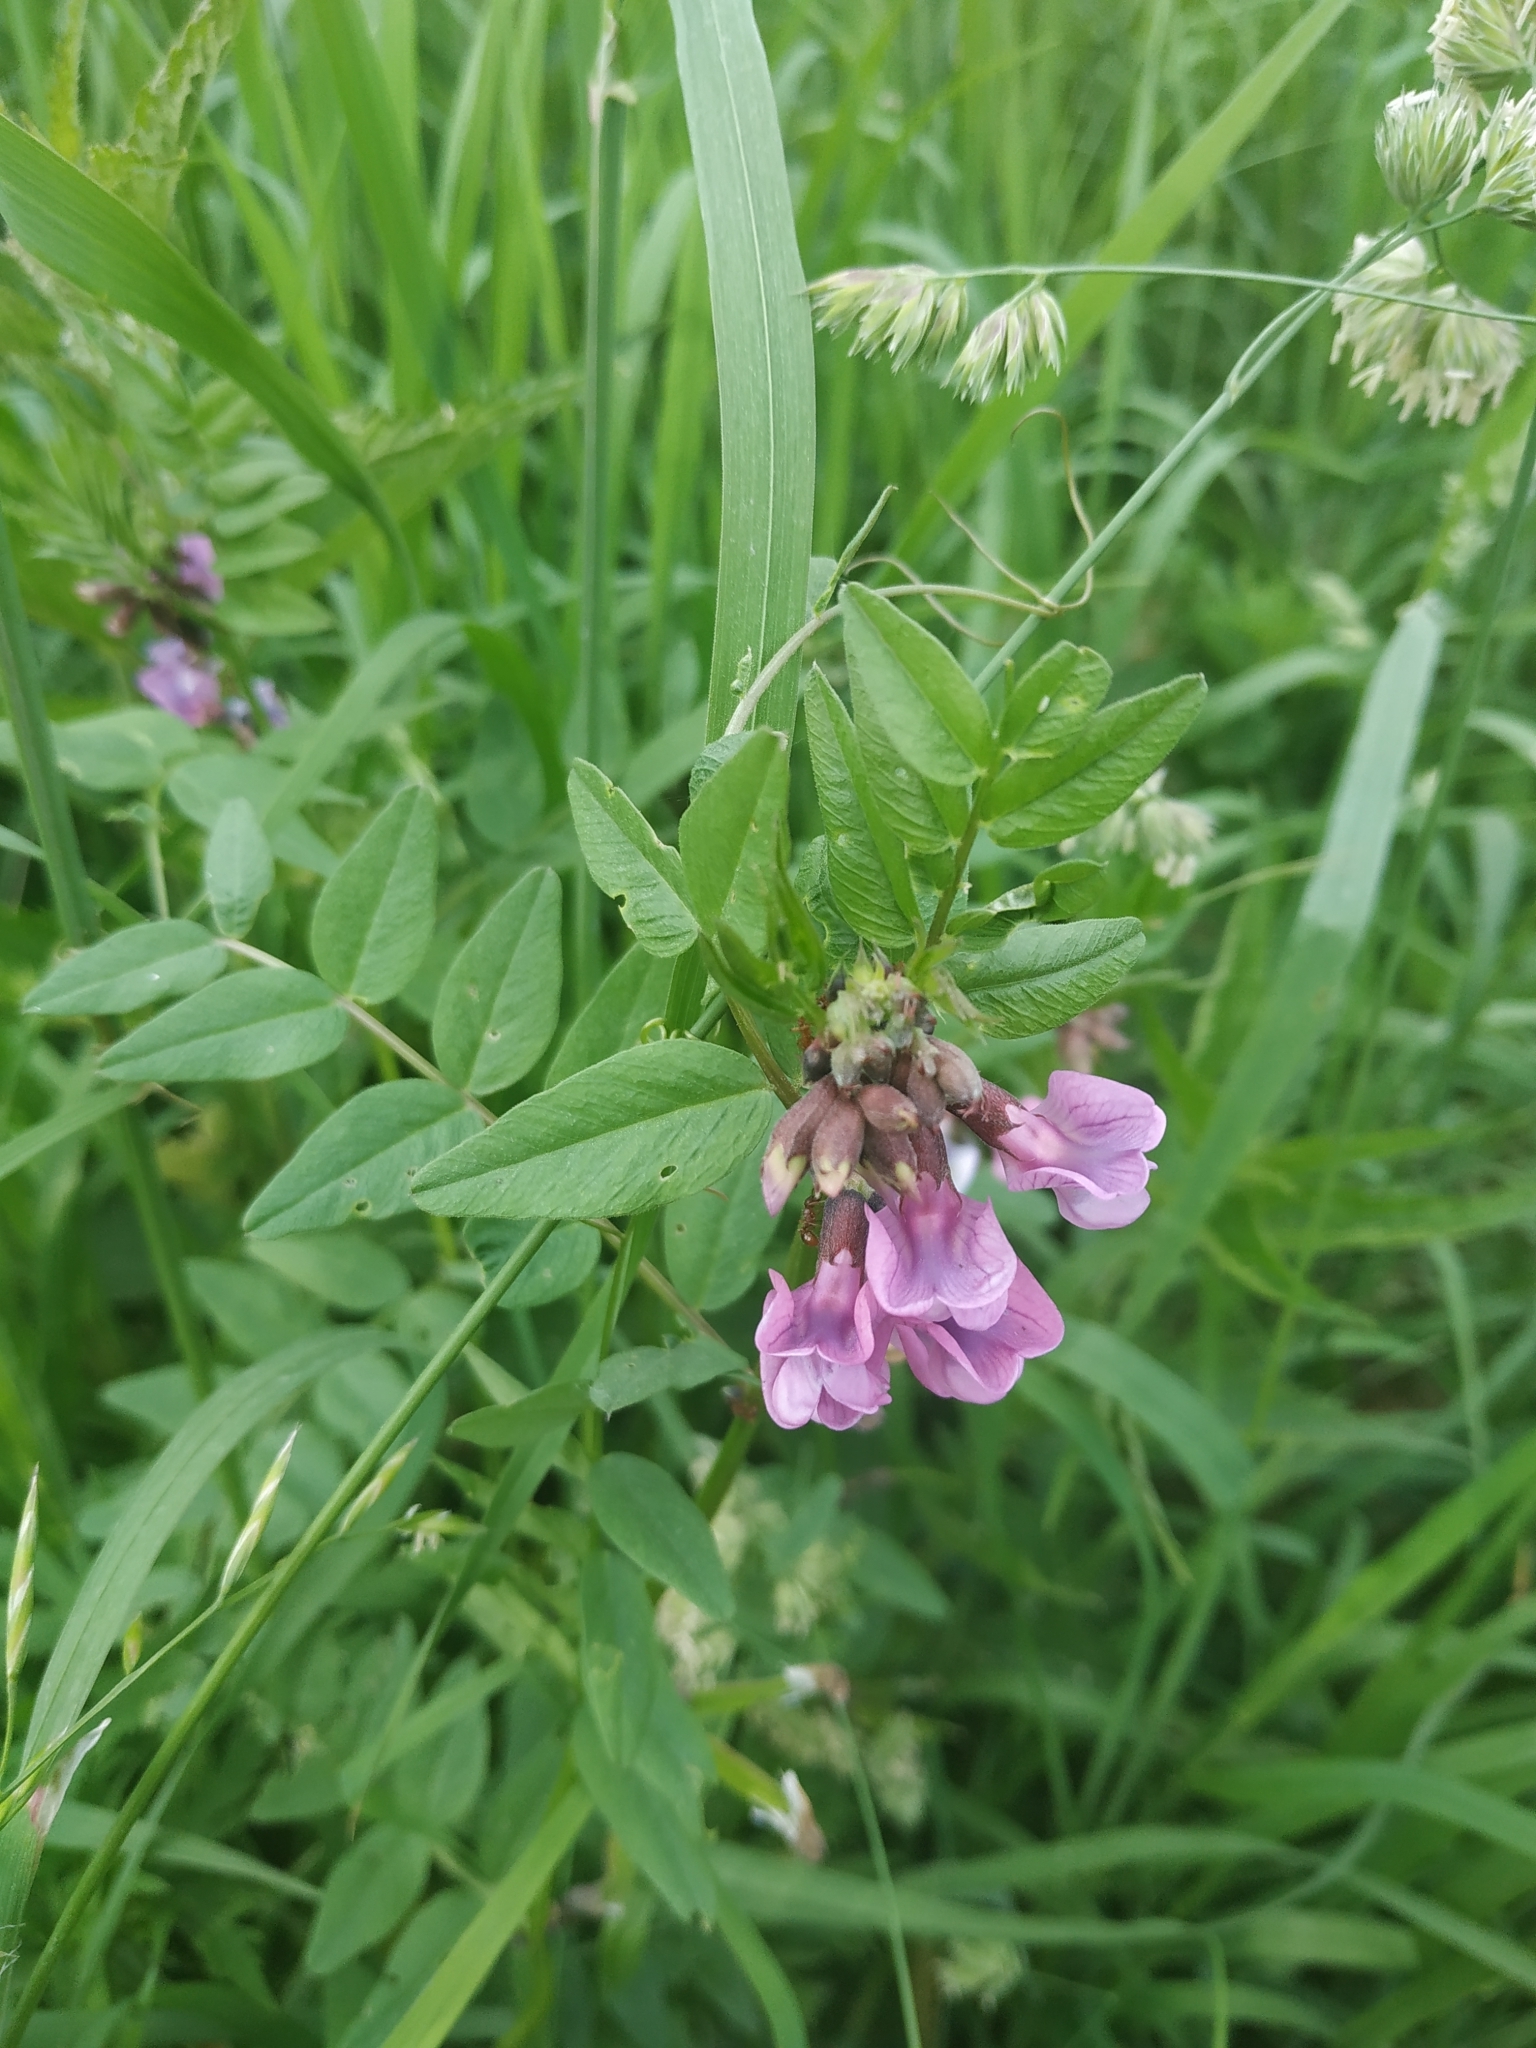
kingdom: Plantae
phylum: Tracheophyta
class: Magnoliopsida
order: Fabales
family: Fabaceae
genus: Vicia
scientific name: Vicia sepium
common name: Bush vetch
